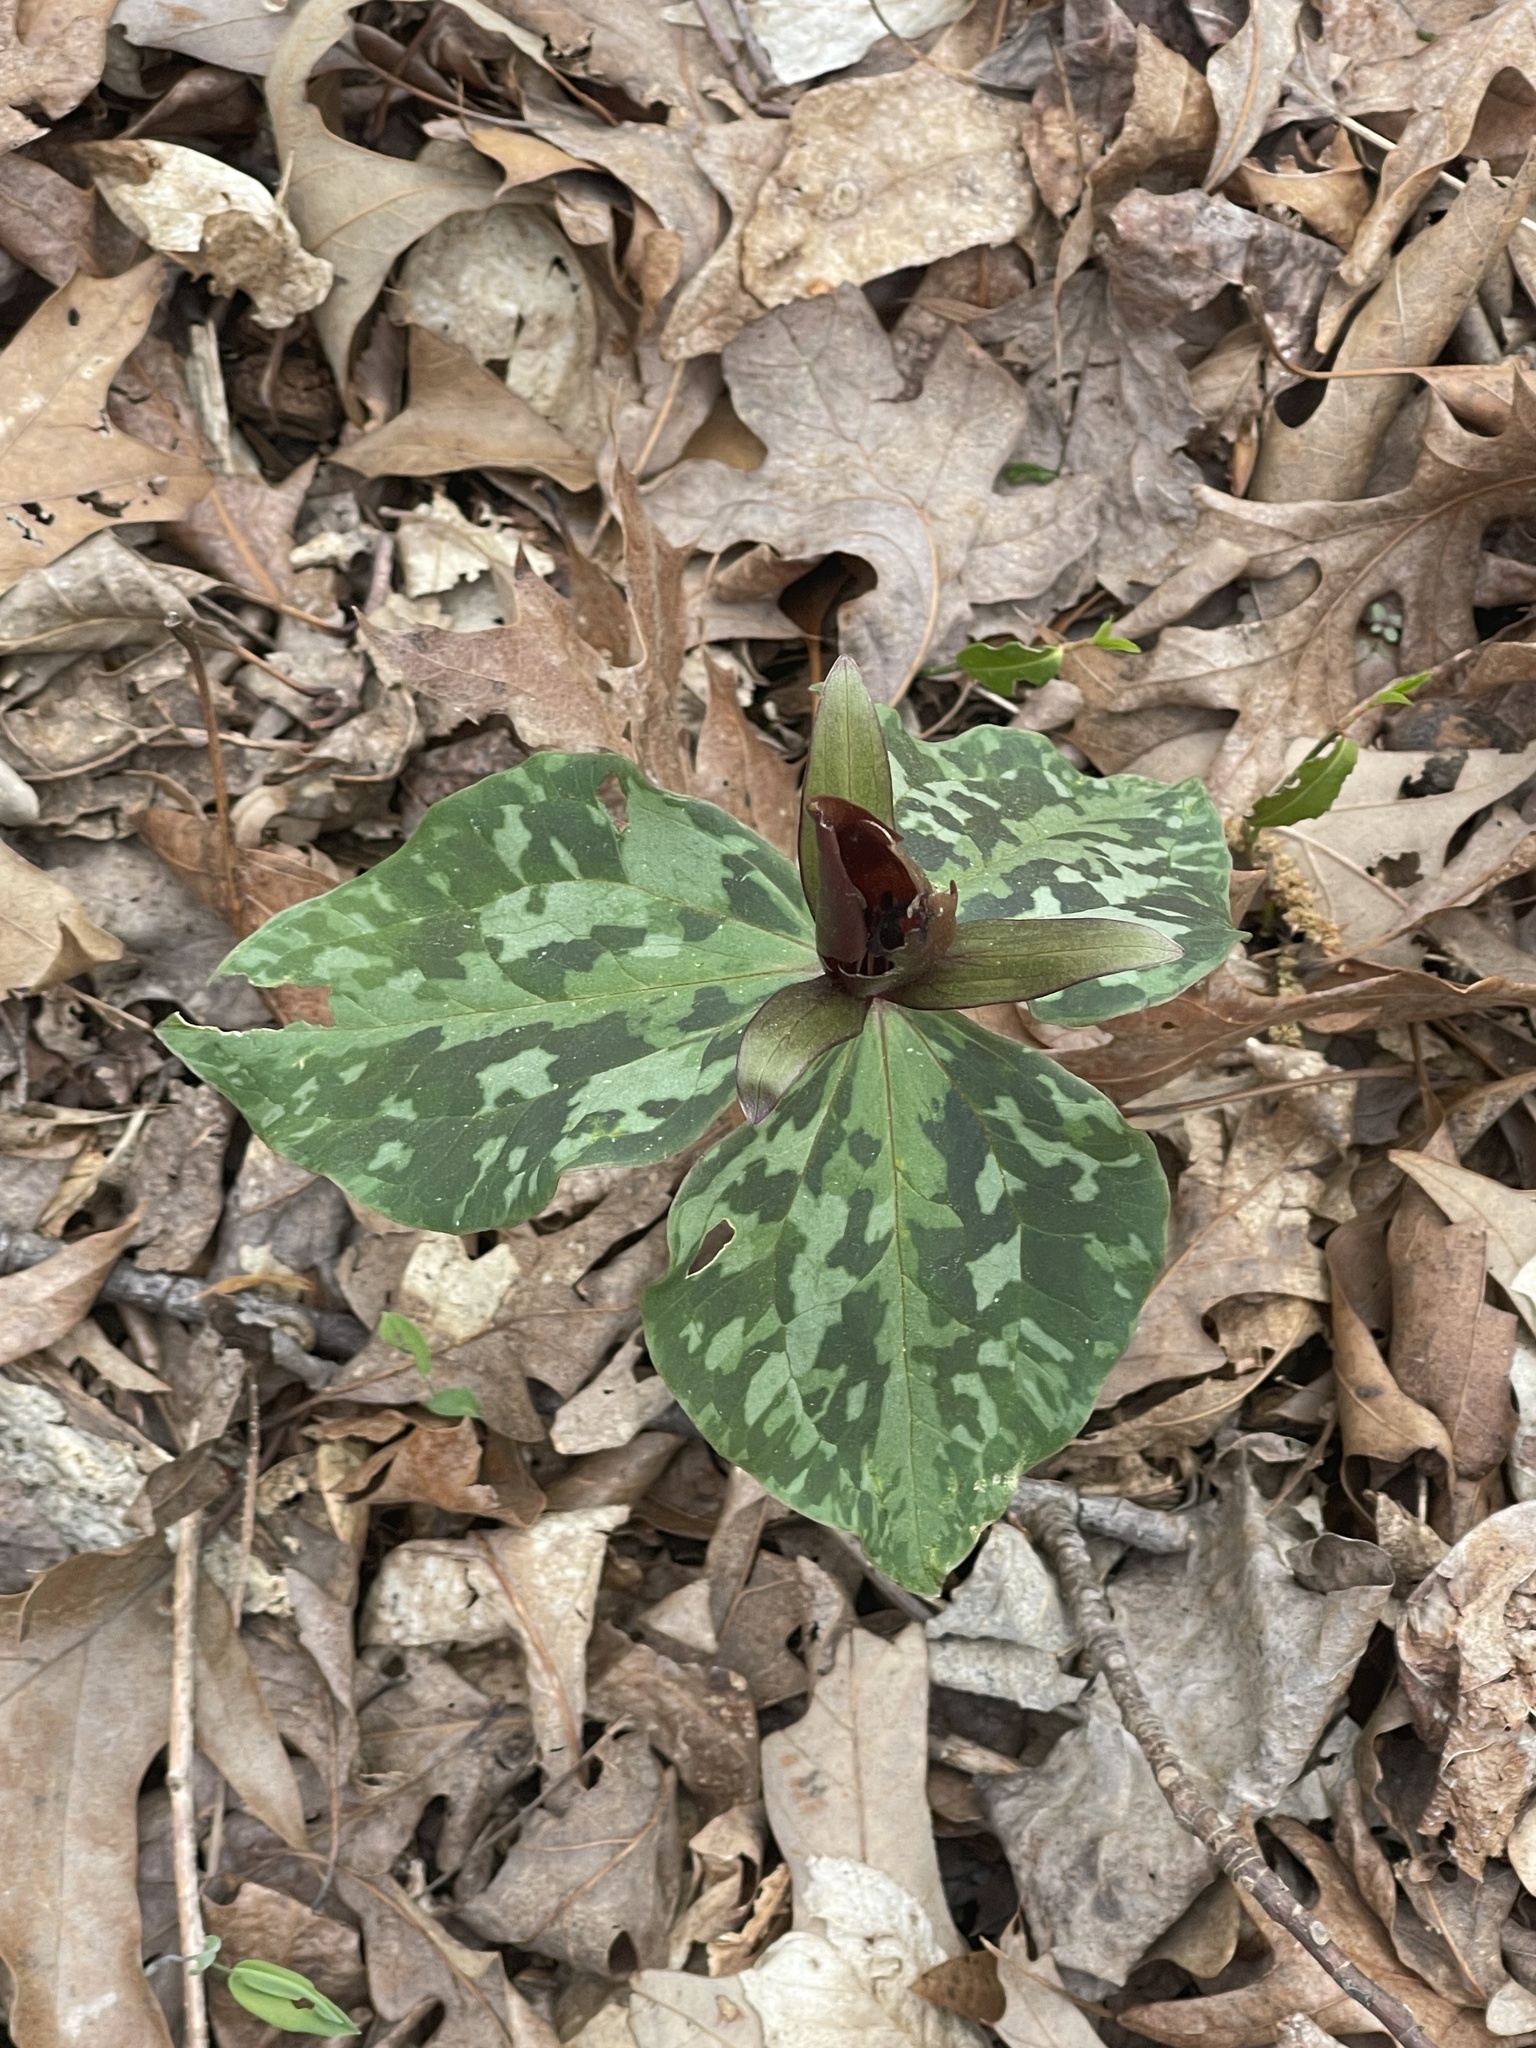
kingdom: Plantae
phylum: Tracheophyta
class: Liliopsida
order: Liliales
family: Melanthiaceae
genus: Trillium
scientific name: Trillium cuneatum
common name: Cuneate trillium
